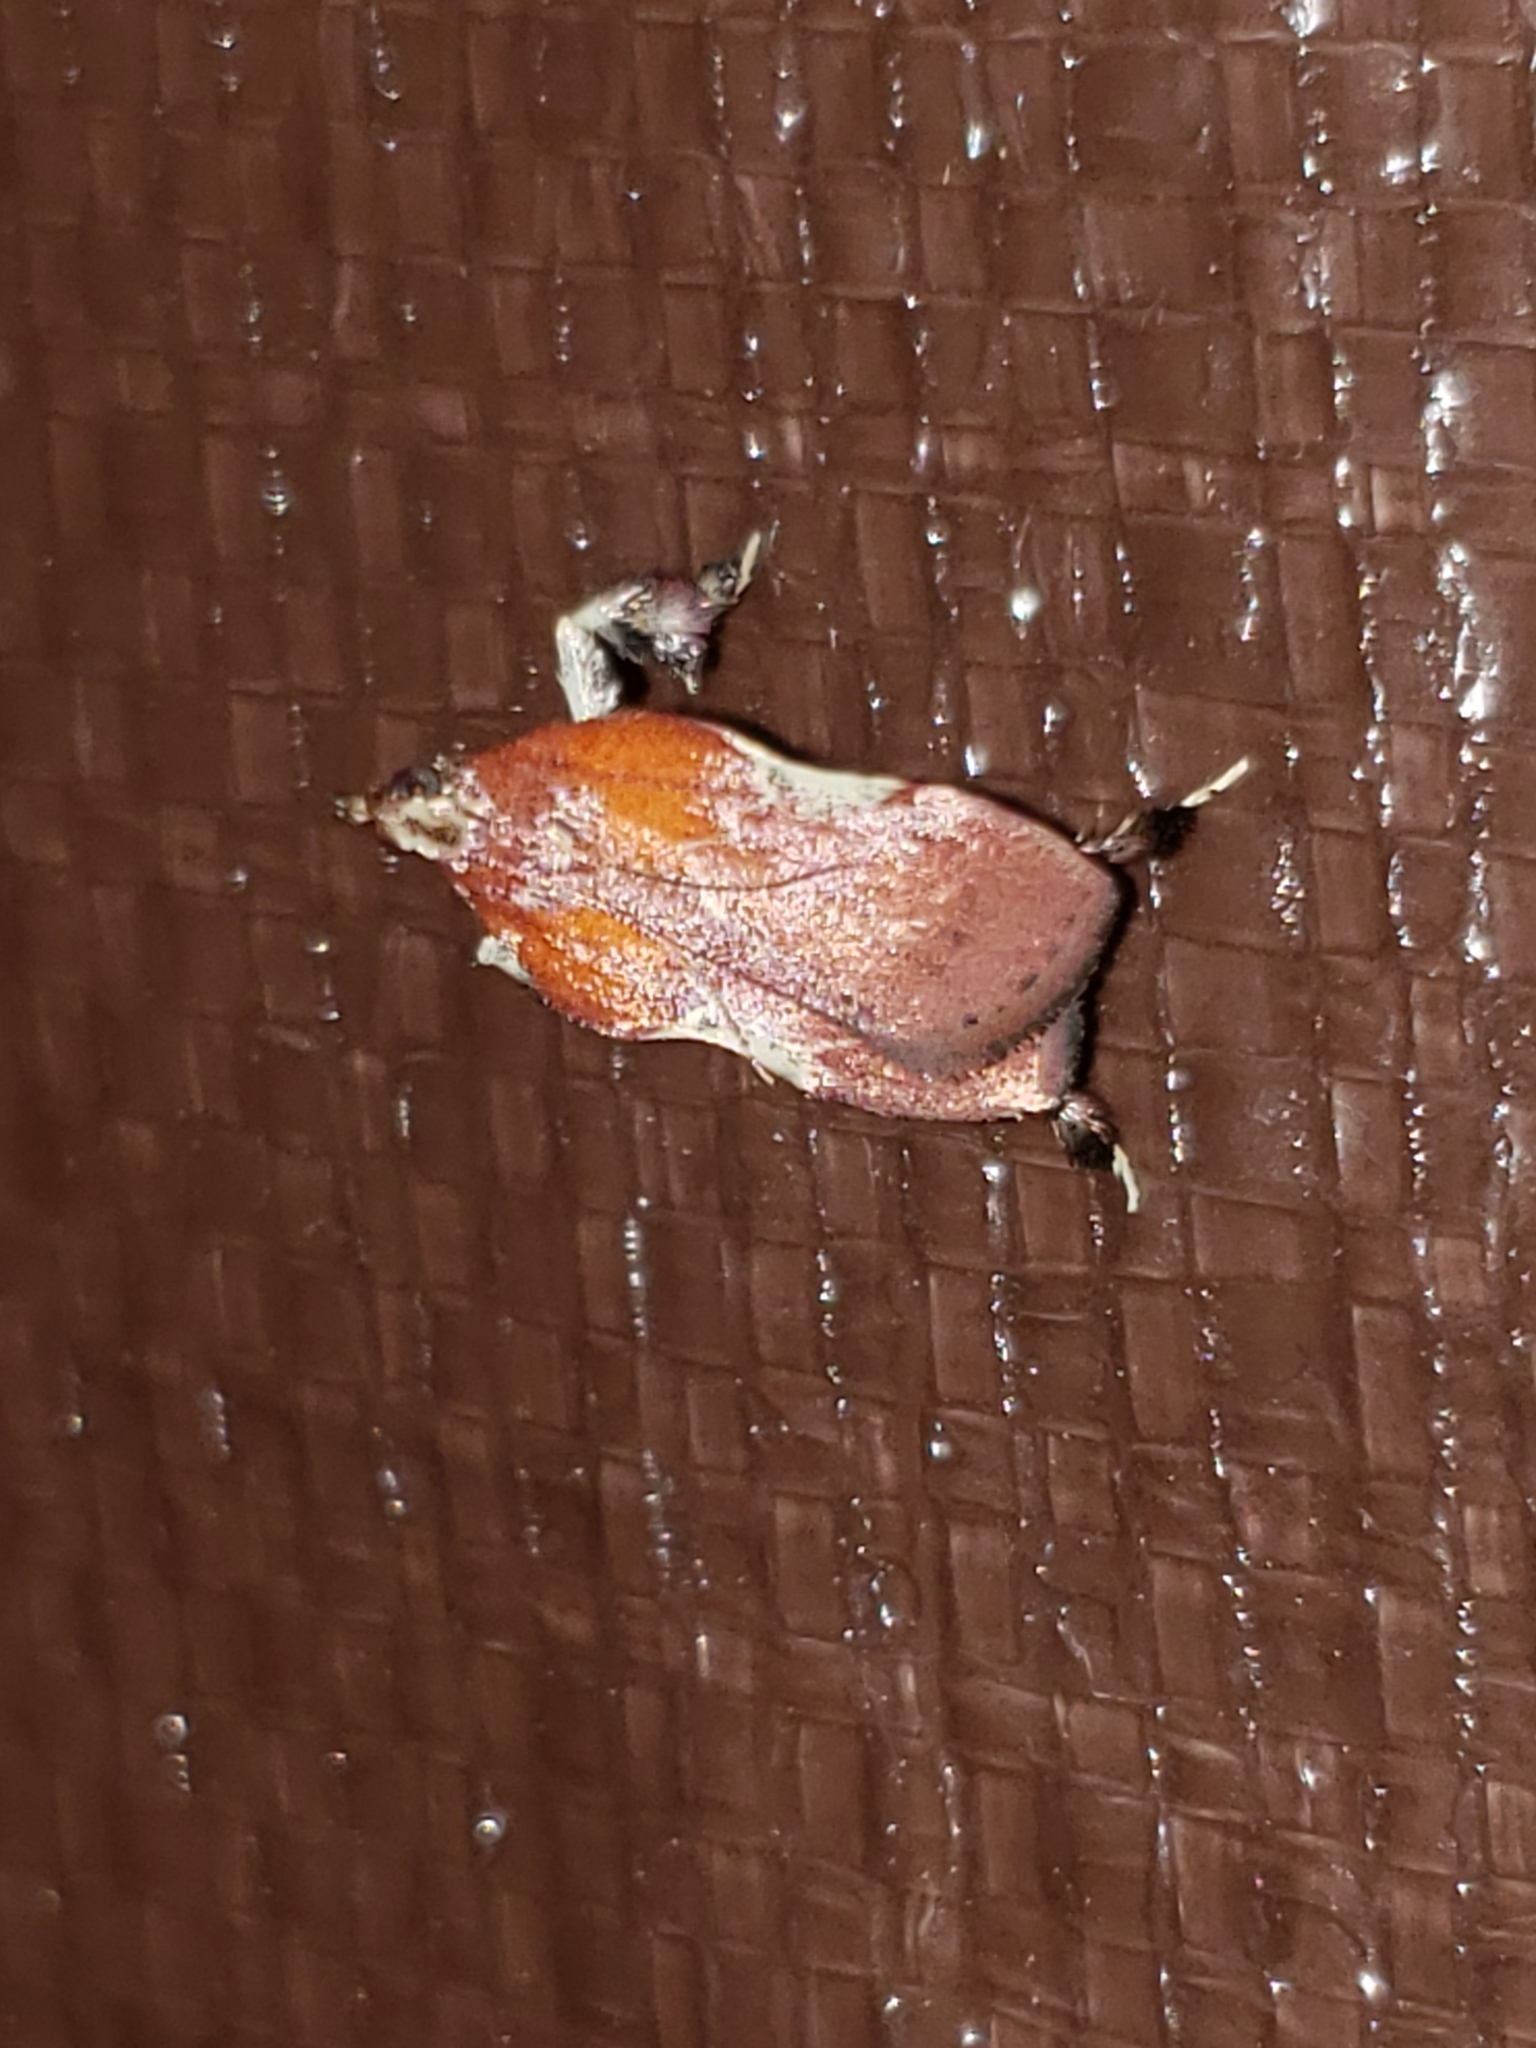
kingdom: Animalia
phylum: Arthropoda
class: Insecta
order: Lepidoptera
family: Pyralidae
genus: Galasa
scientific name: Galasa nigrinodis
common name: Boxwood leaftier moth
